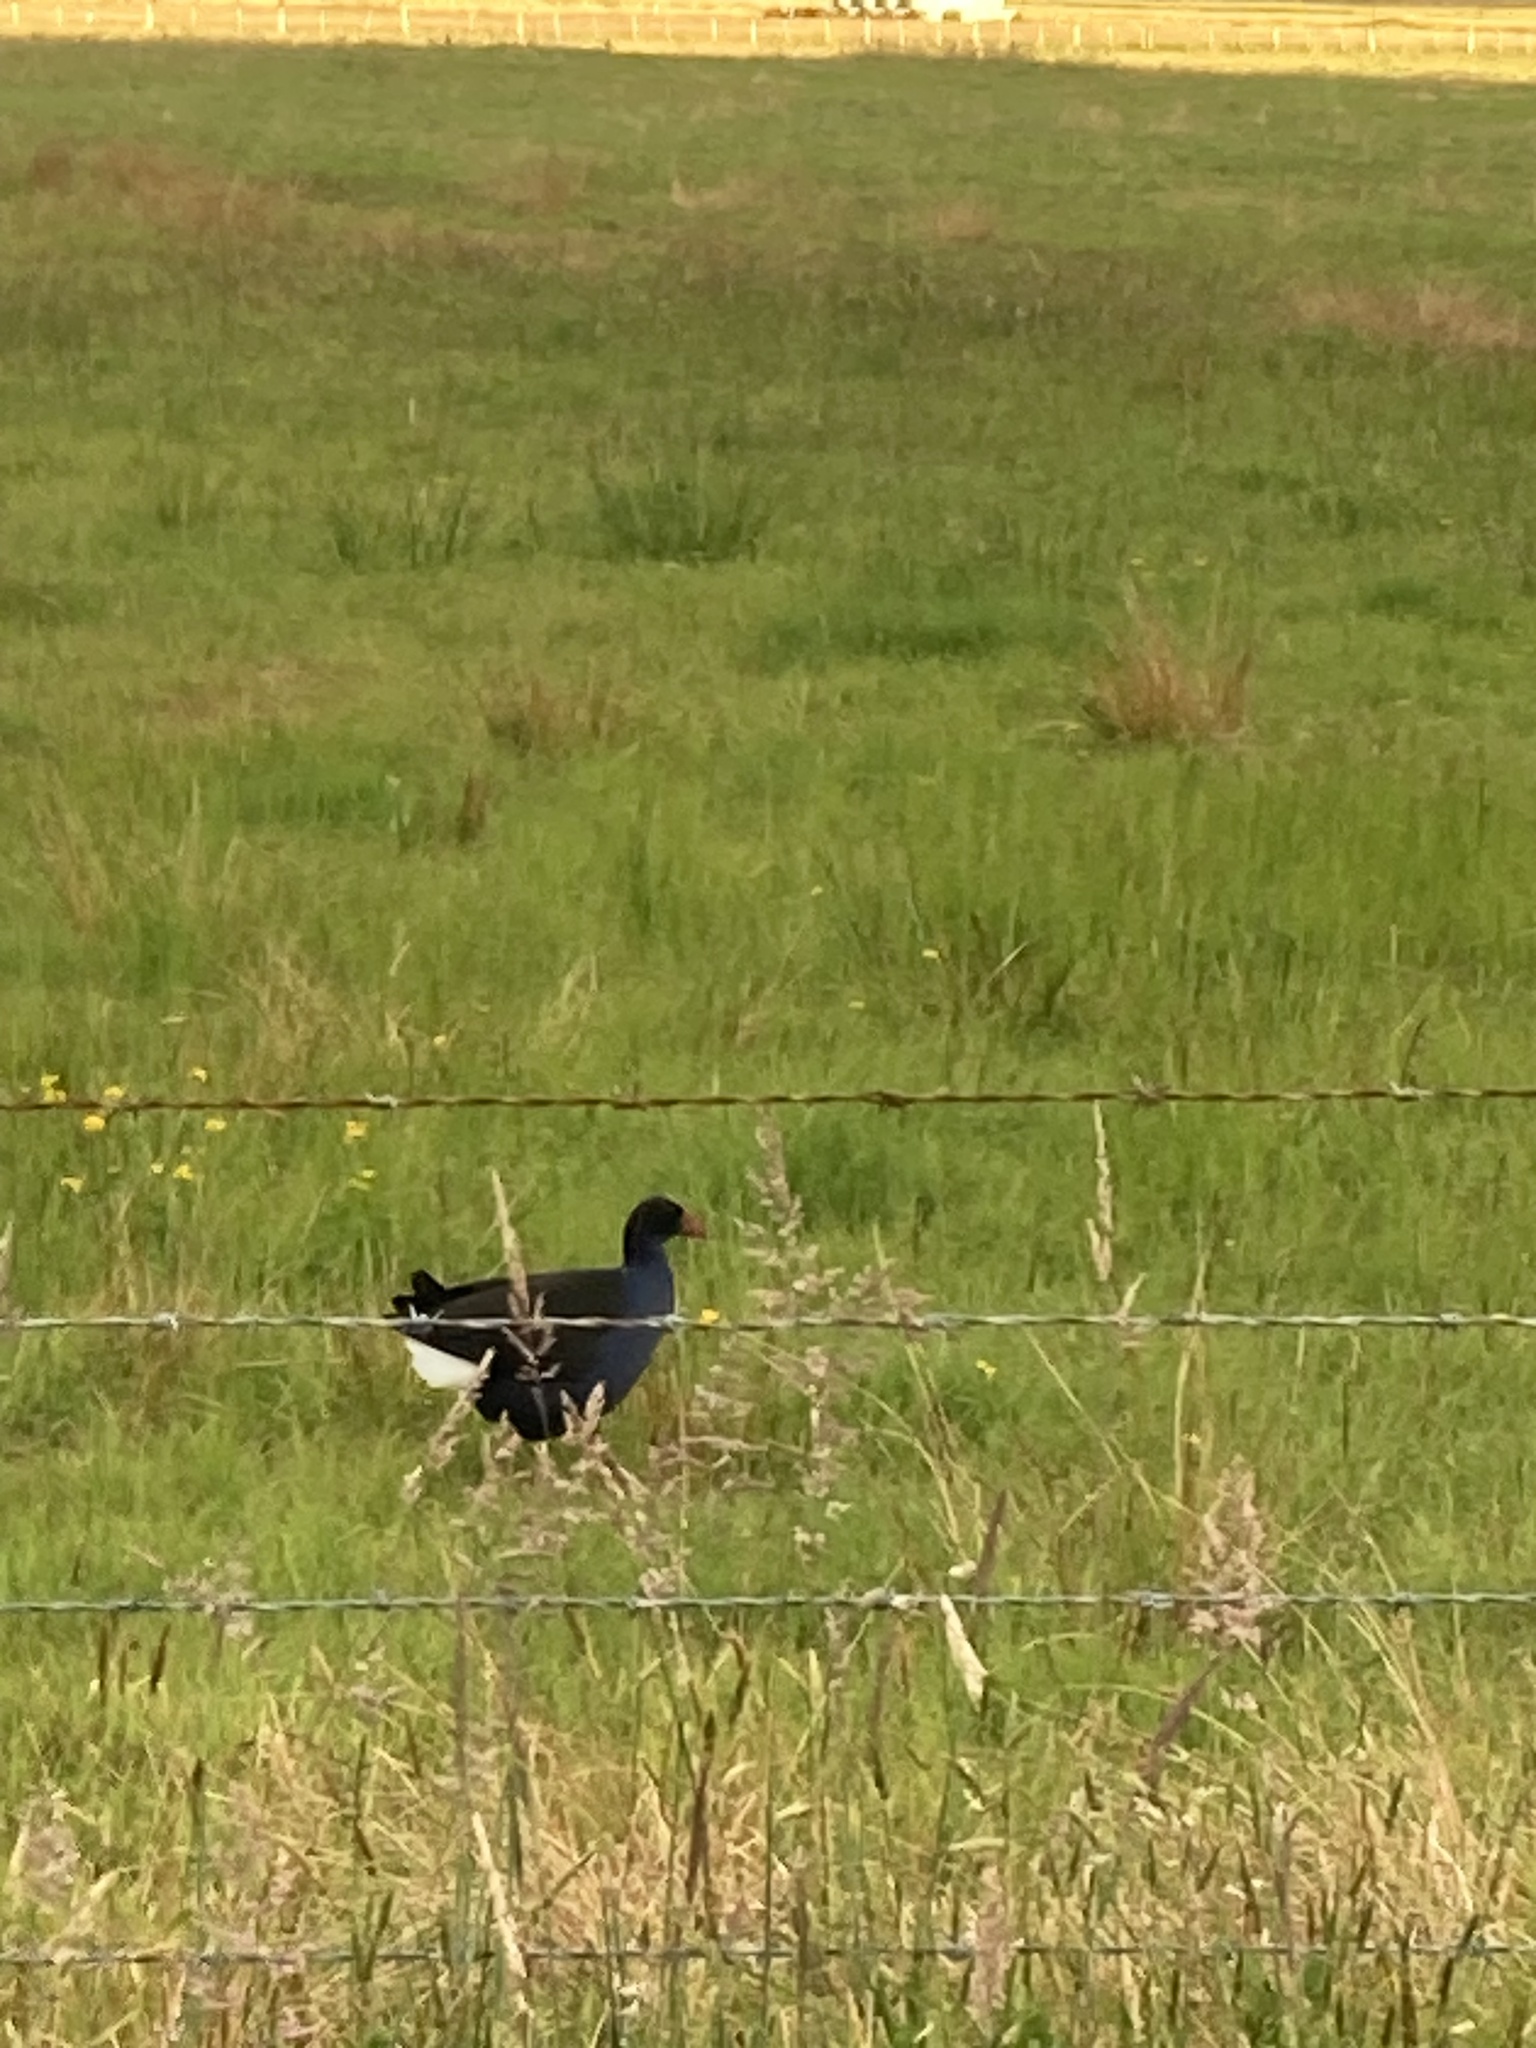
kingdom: Animalia
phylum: Chordata
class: Aves
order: Gruiformes
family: Rallidae
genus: Porphyrio
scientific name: Porphyrio melanotus
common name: Australasian swamphen
